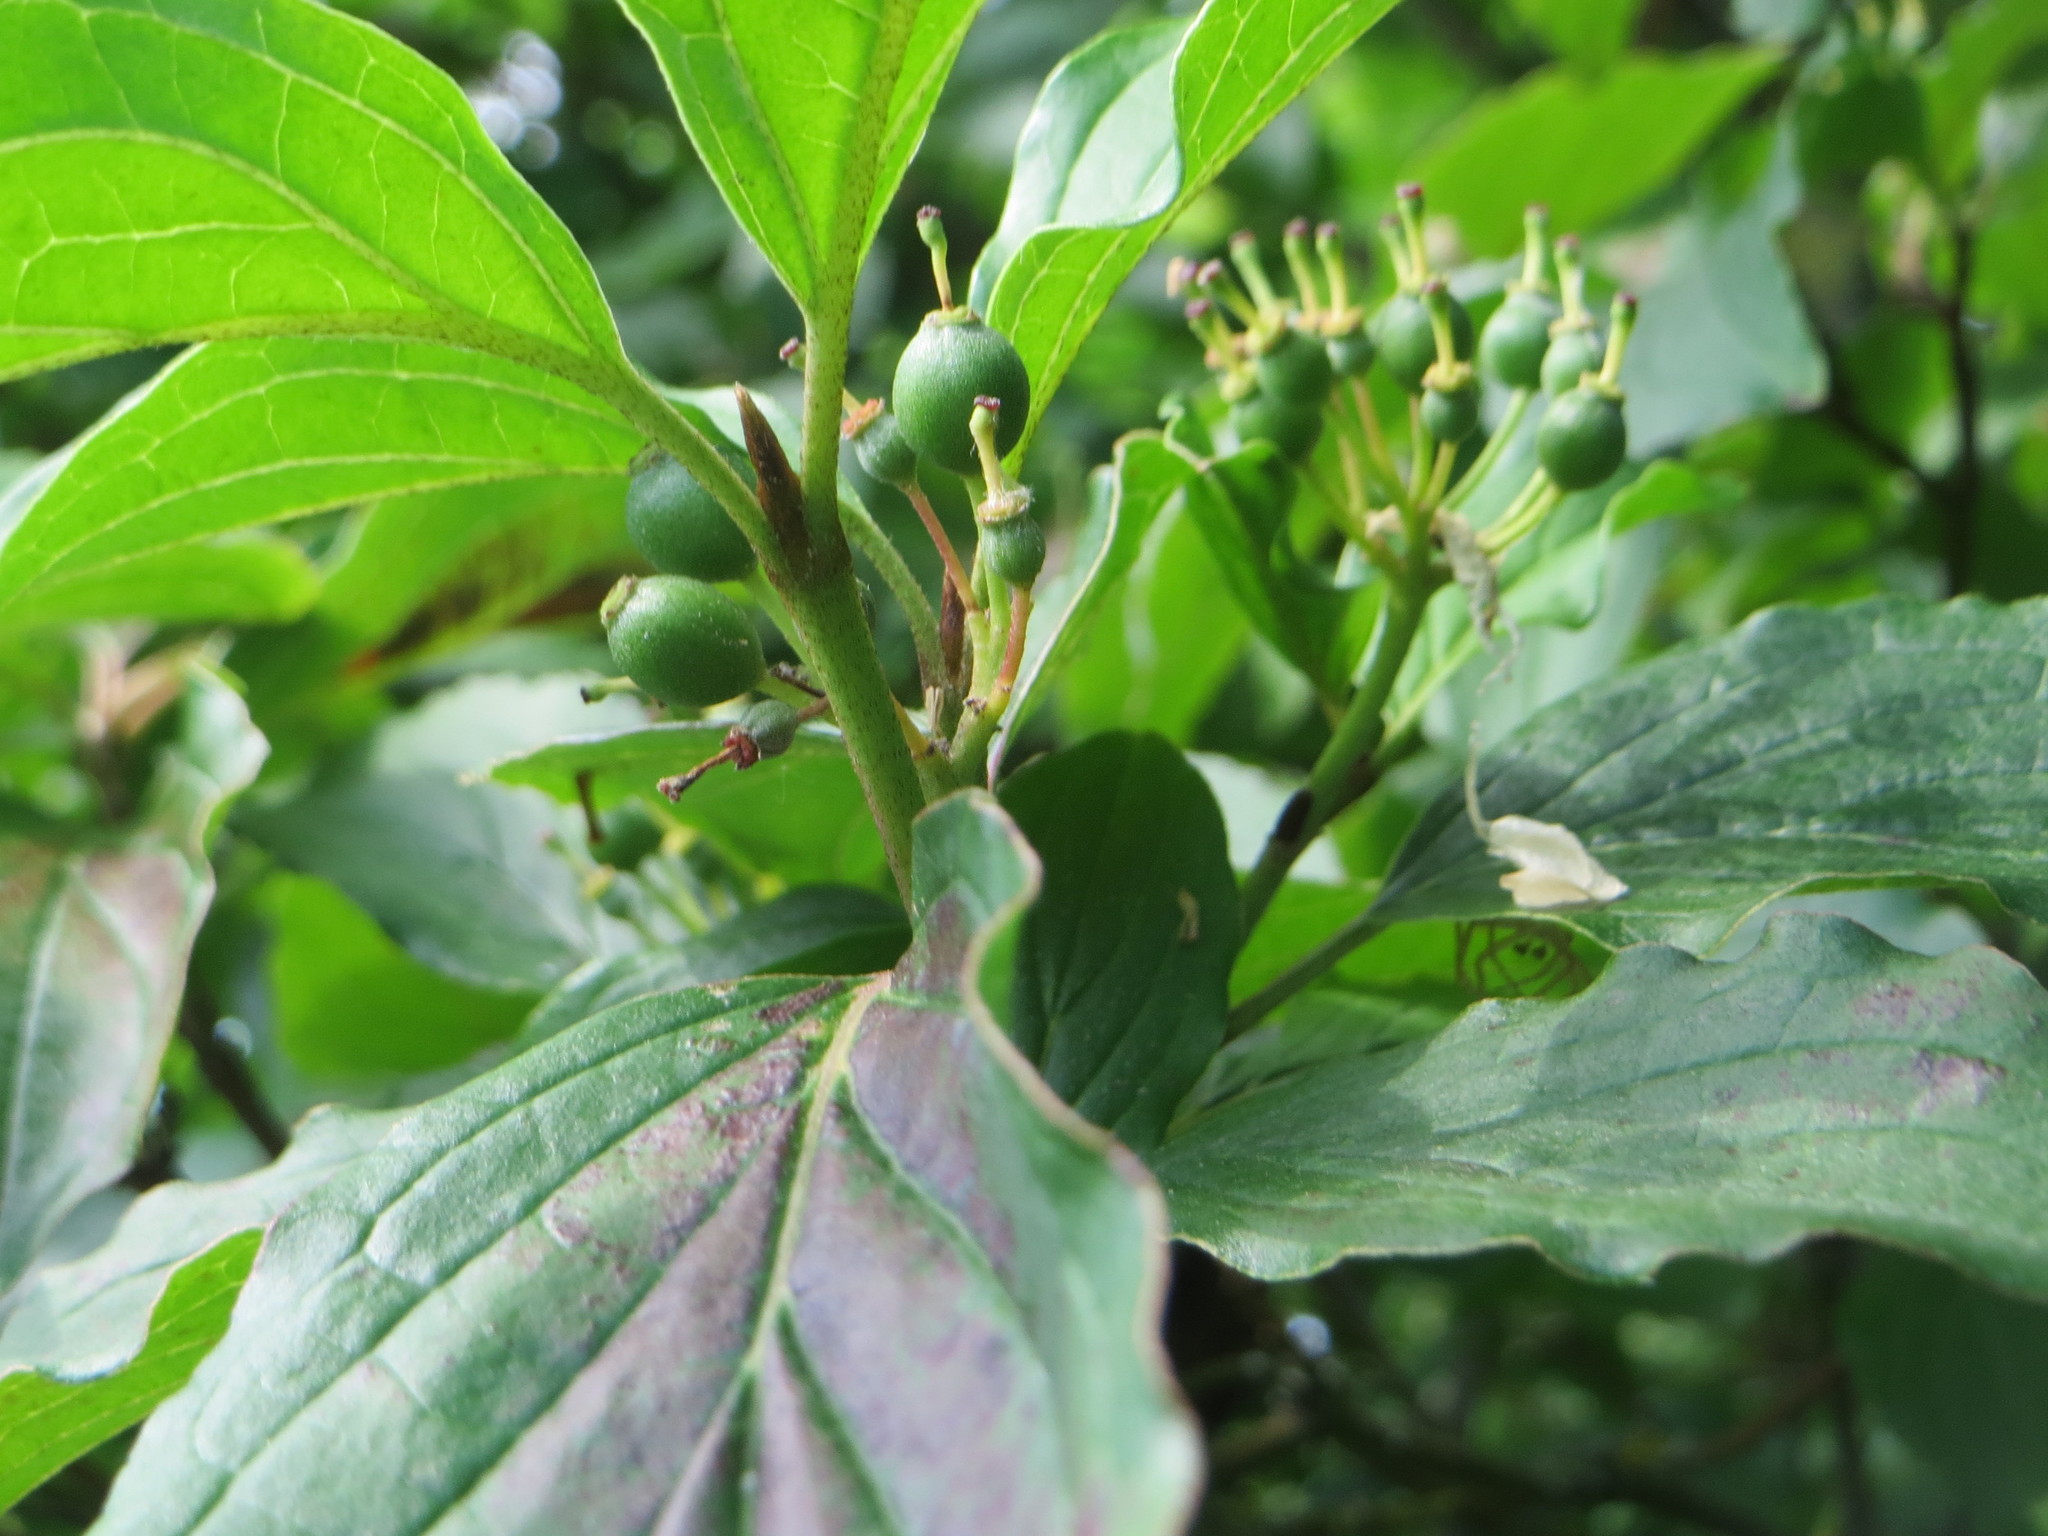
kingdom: Plantae
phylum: Tracheophyta
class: Magnoliopsida
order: Cornales
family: Cornaceae
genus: Cornus
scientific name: Cornus sanguinea
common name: Dogwood
